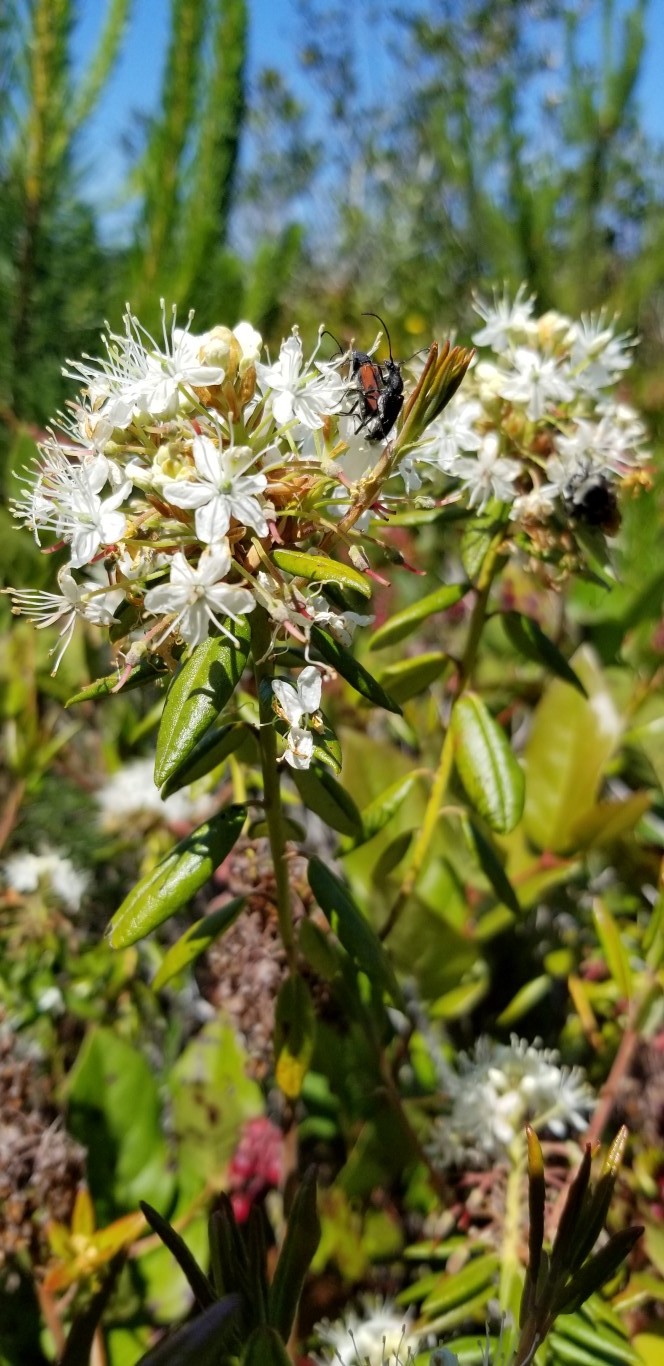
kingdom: Plantae
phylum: Tracheophyta
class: Magnoliopsida
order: Ericales
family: Ericaceae
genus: Rhododendron
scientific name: Rhododendron columbianum
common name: Western labrador tea
